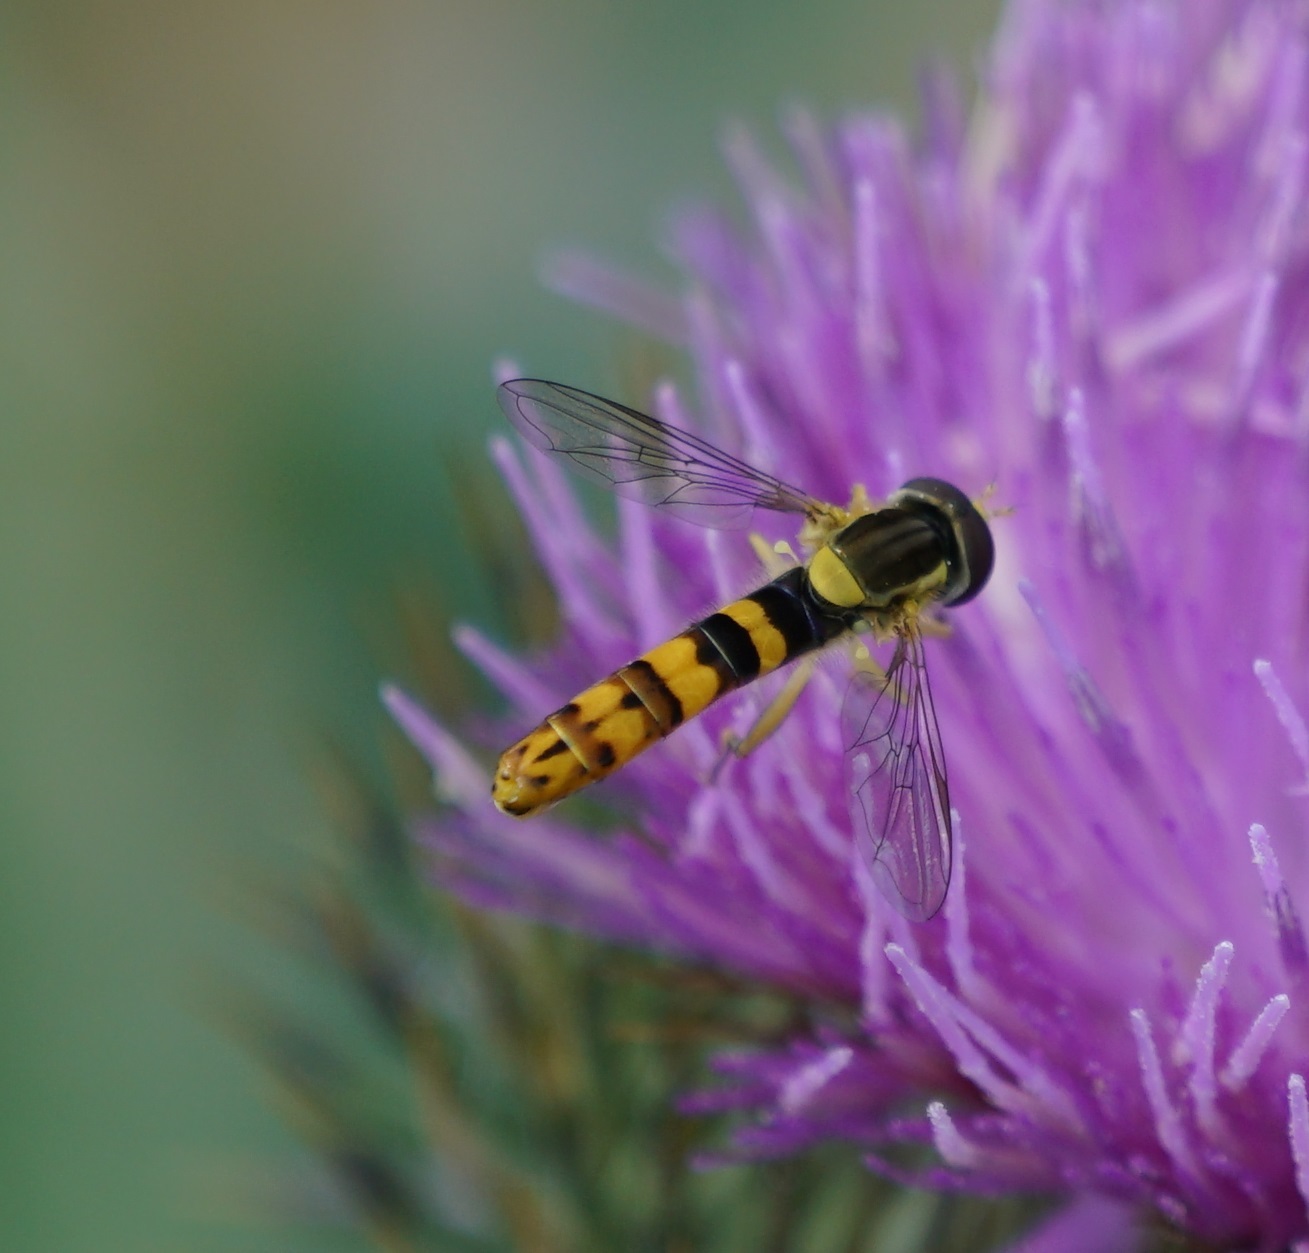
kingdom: Animalia
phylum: Arthropoda
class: Insecta
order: Diptera
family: Syrphidae
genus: Sphaerophoria
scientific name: Sphaerophoria scripta
